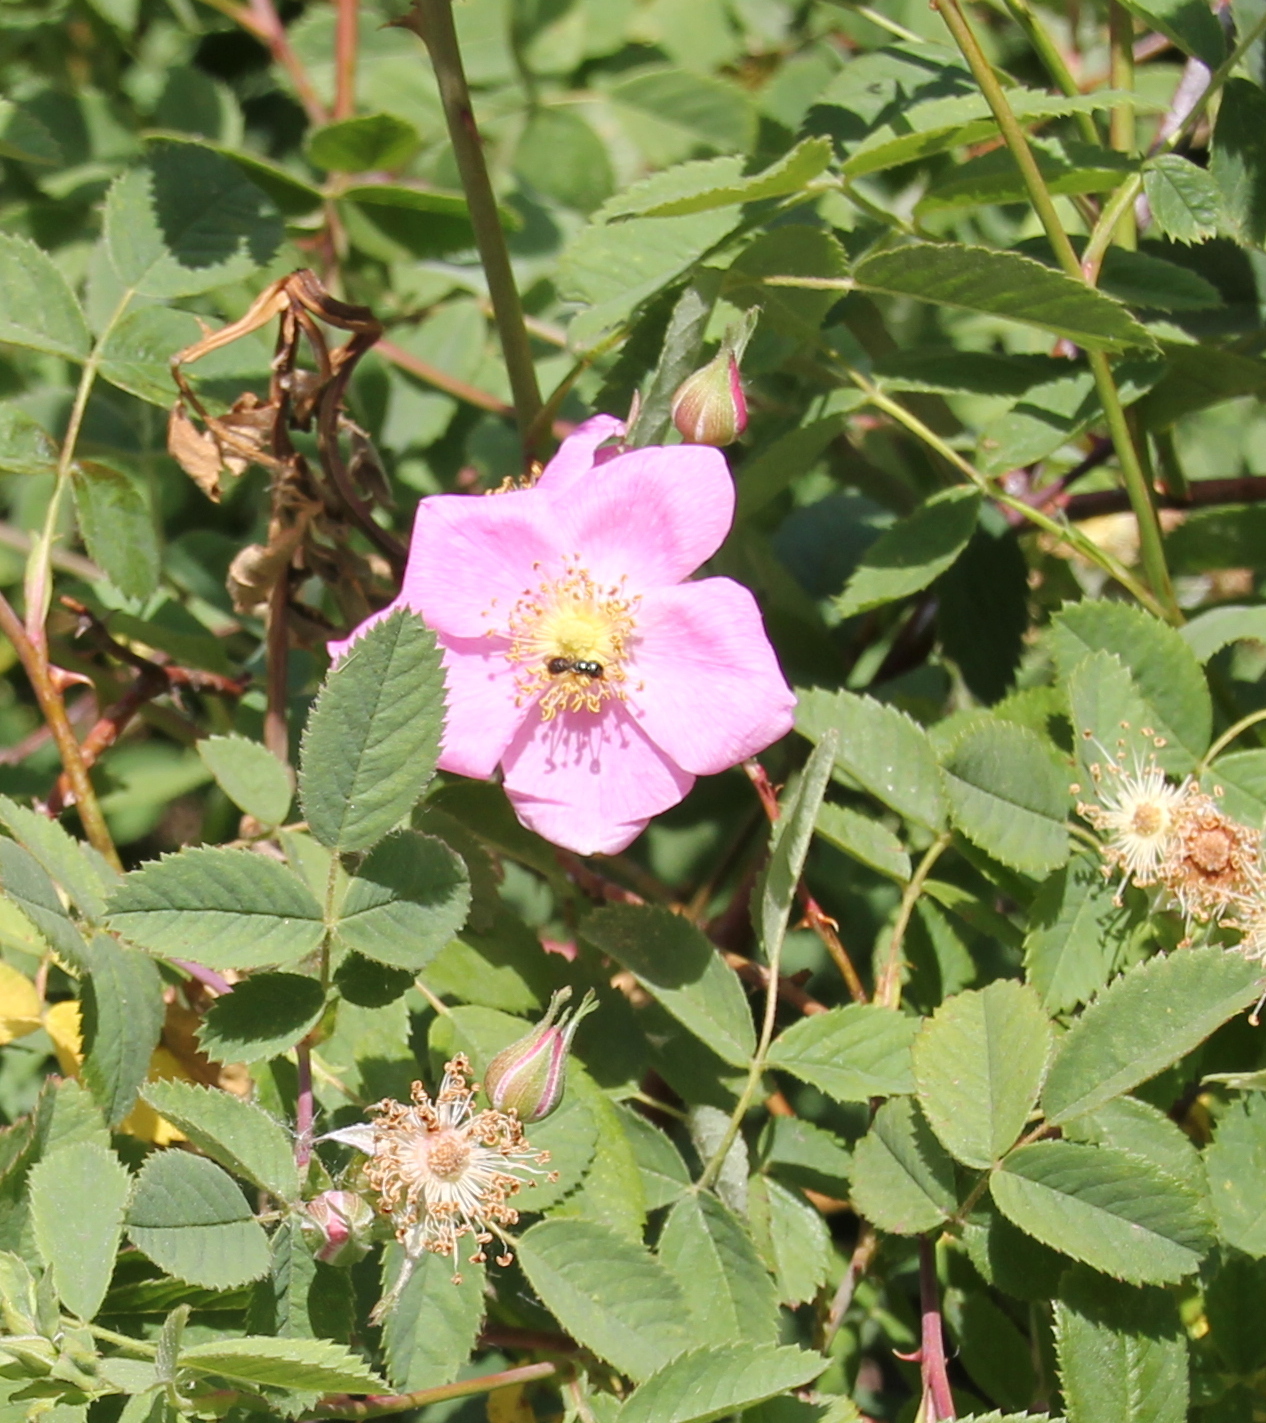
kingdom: Plantae
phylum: Tracheophyta
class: Magnoliopsida
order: Rosales
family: Rosaceae
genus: Rosa
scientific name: Rosa californica
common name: California rose
